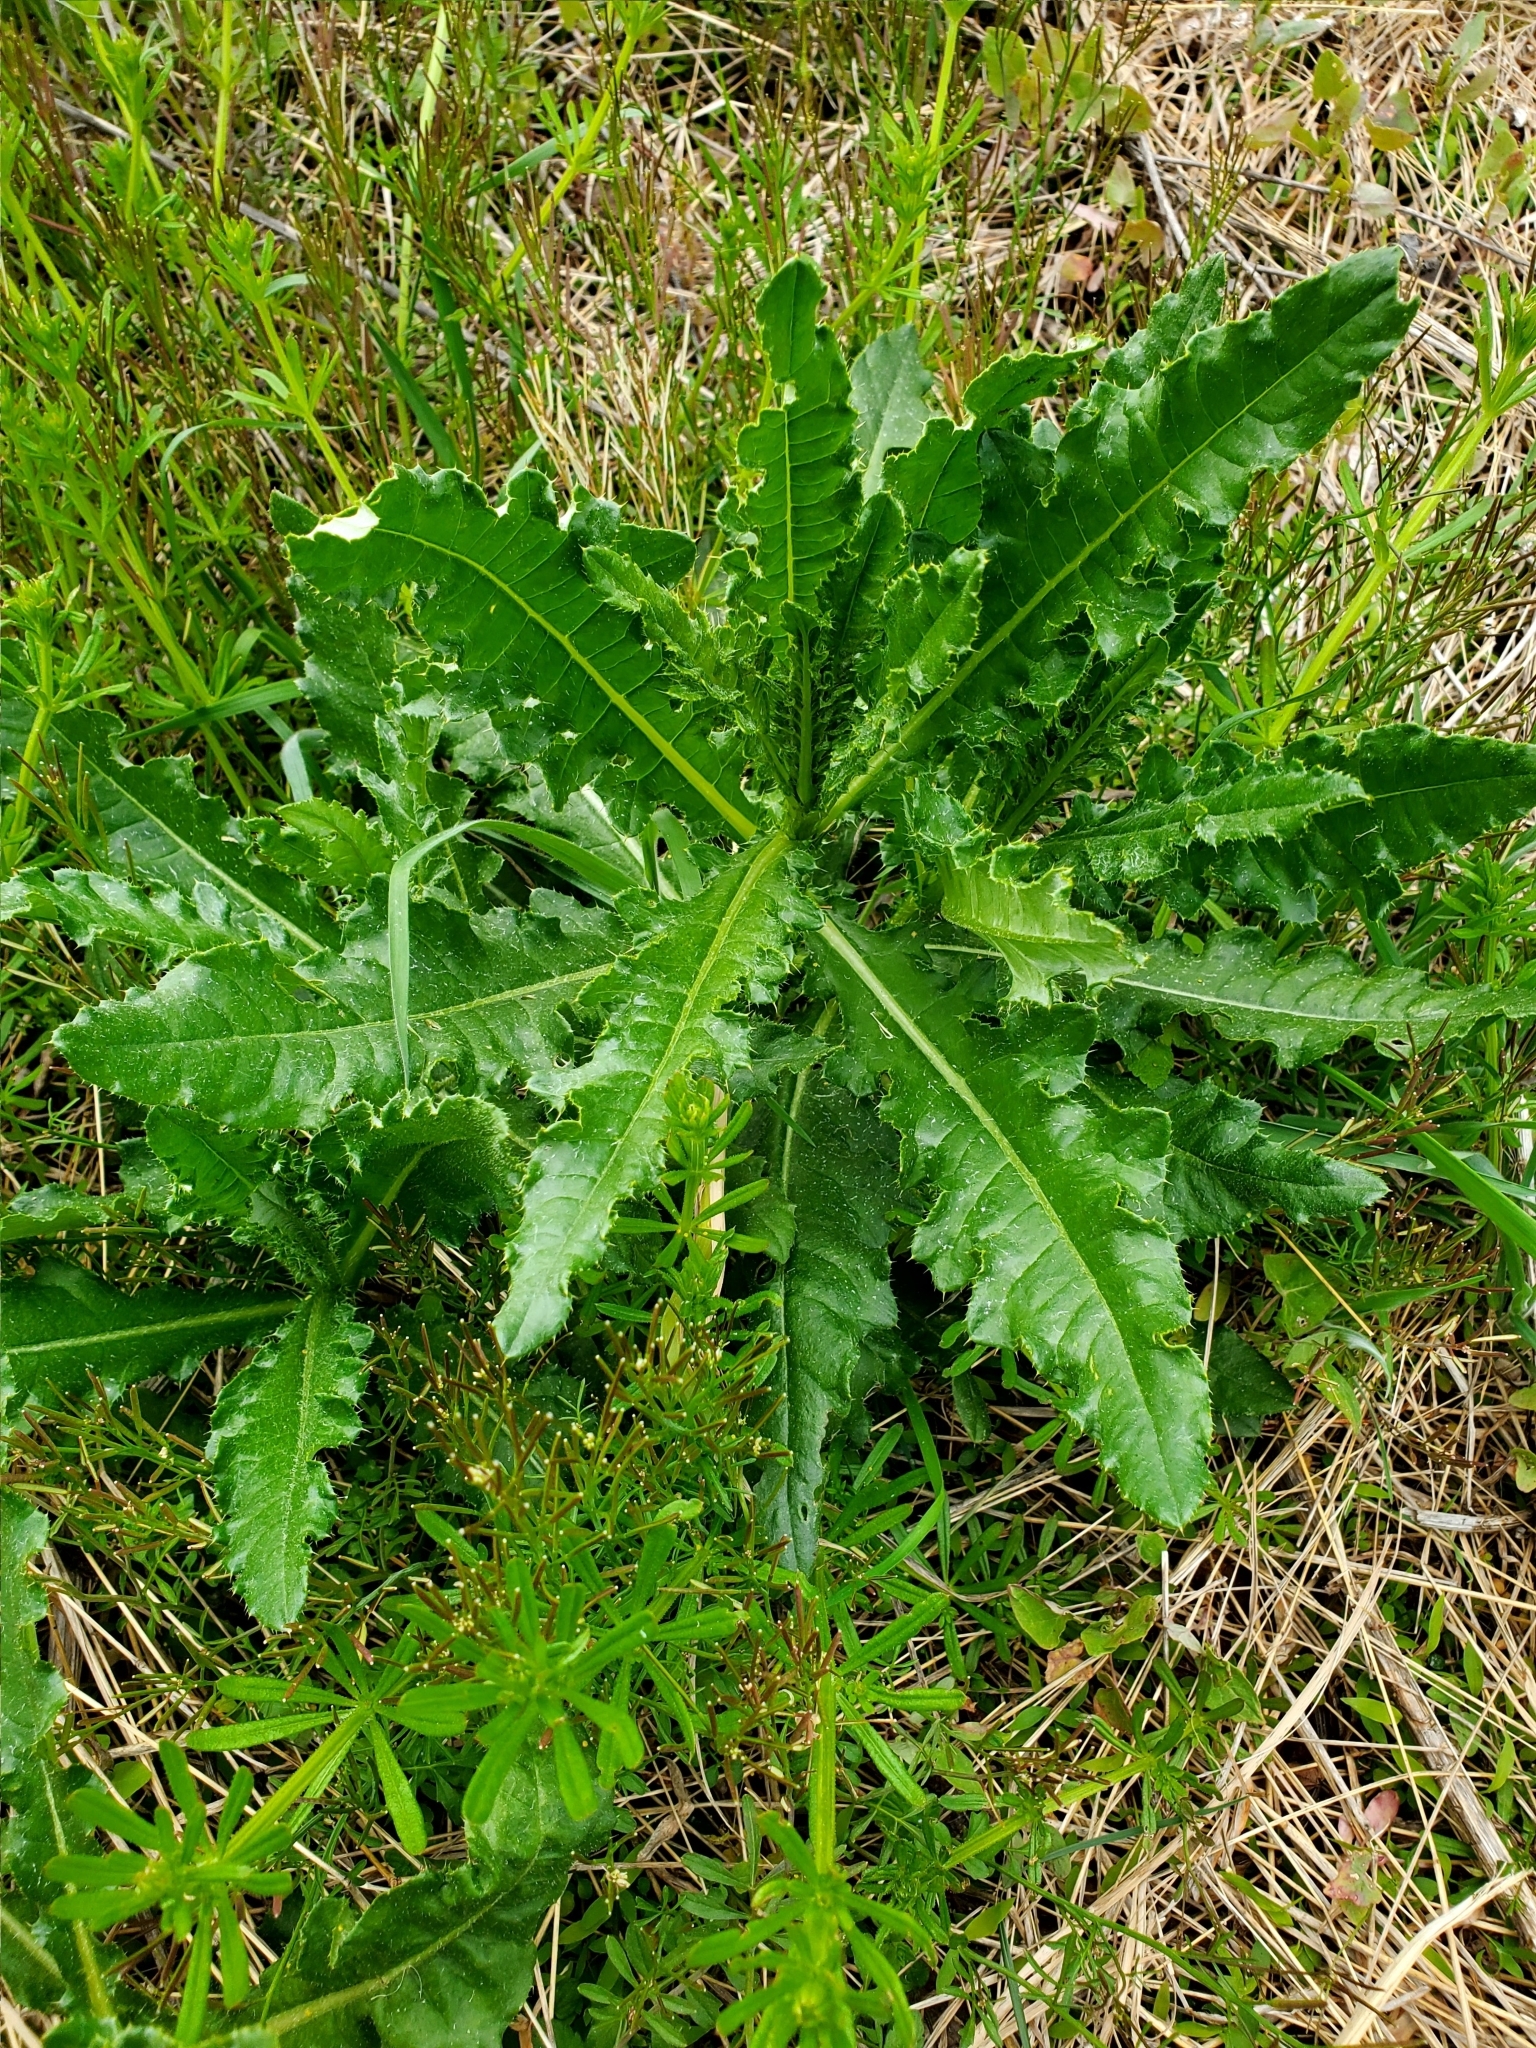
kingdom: Plantae
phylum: Tracheophyta
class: Magnoliopsida
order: Asterales
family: Asteraceae
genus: Cirsium
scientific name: Cirsium arvense
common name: Creeping thistle
